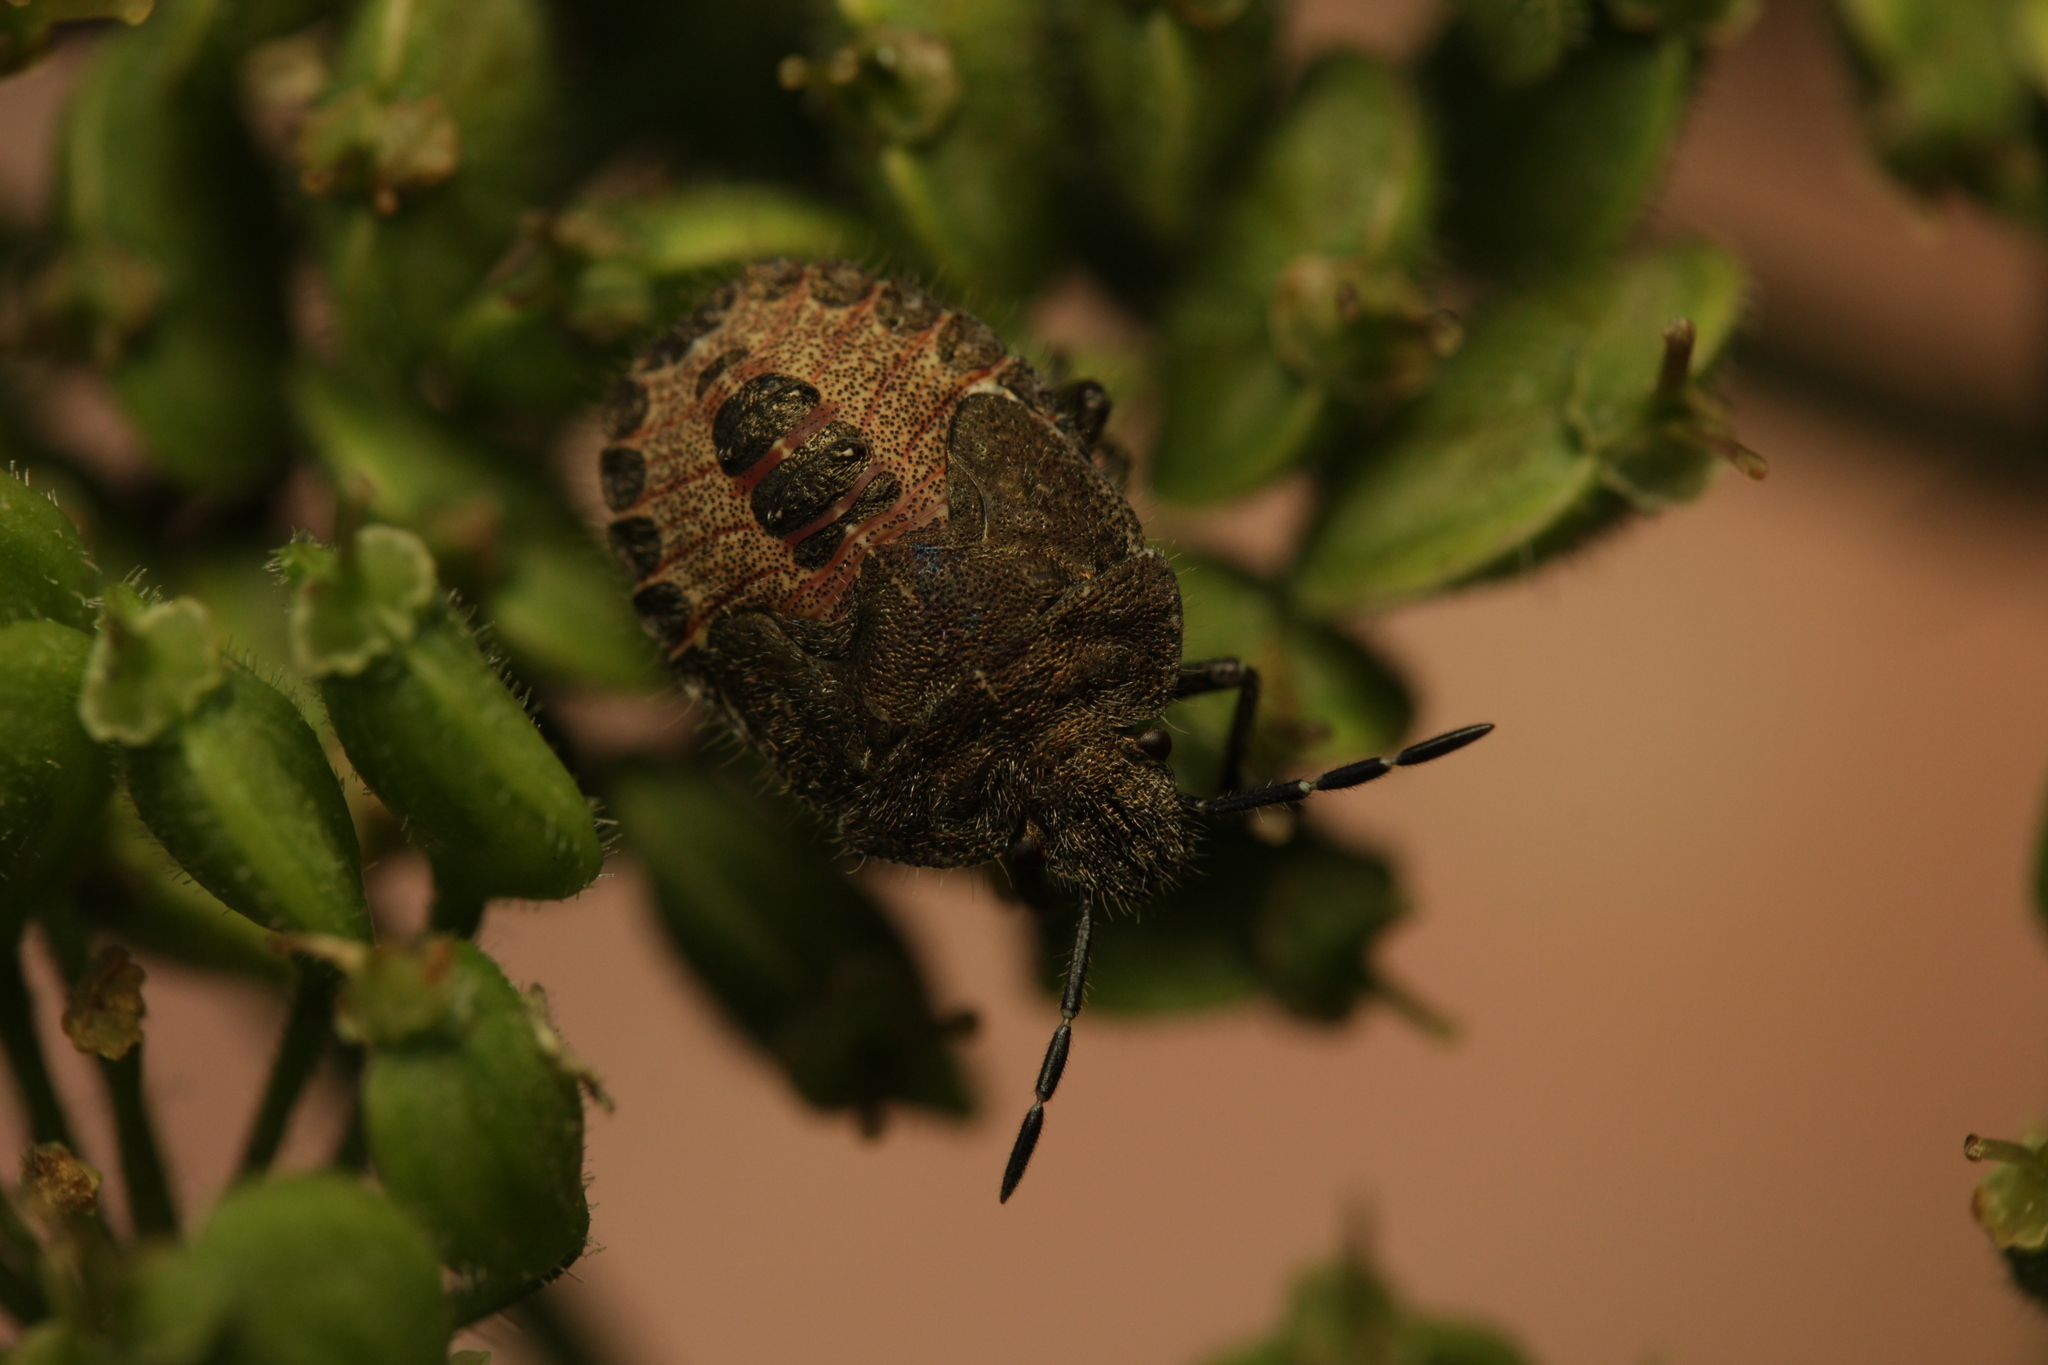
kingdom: Animalia
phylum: Arthropoda
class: Insecta
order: Hemiptera
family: Pentatomidae
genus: Dolycoris
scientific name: Dolycoris baccarum
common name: Sloe bug
